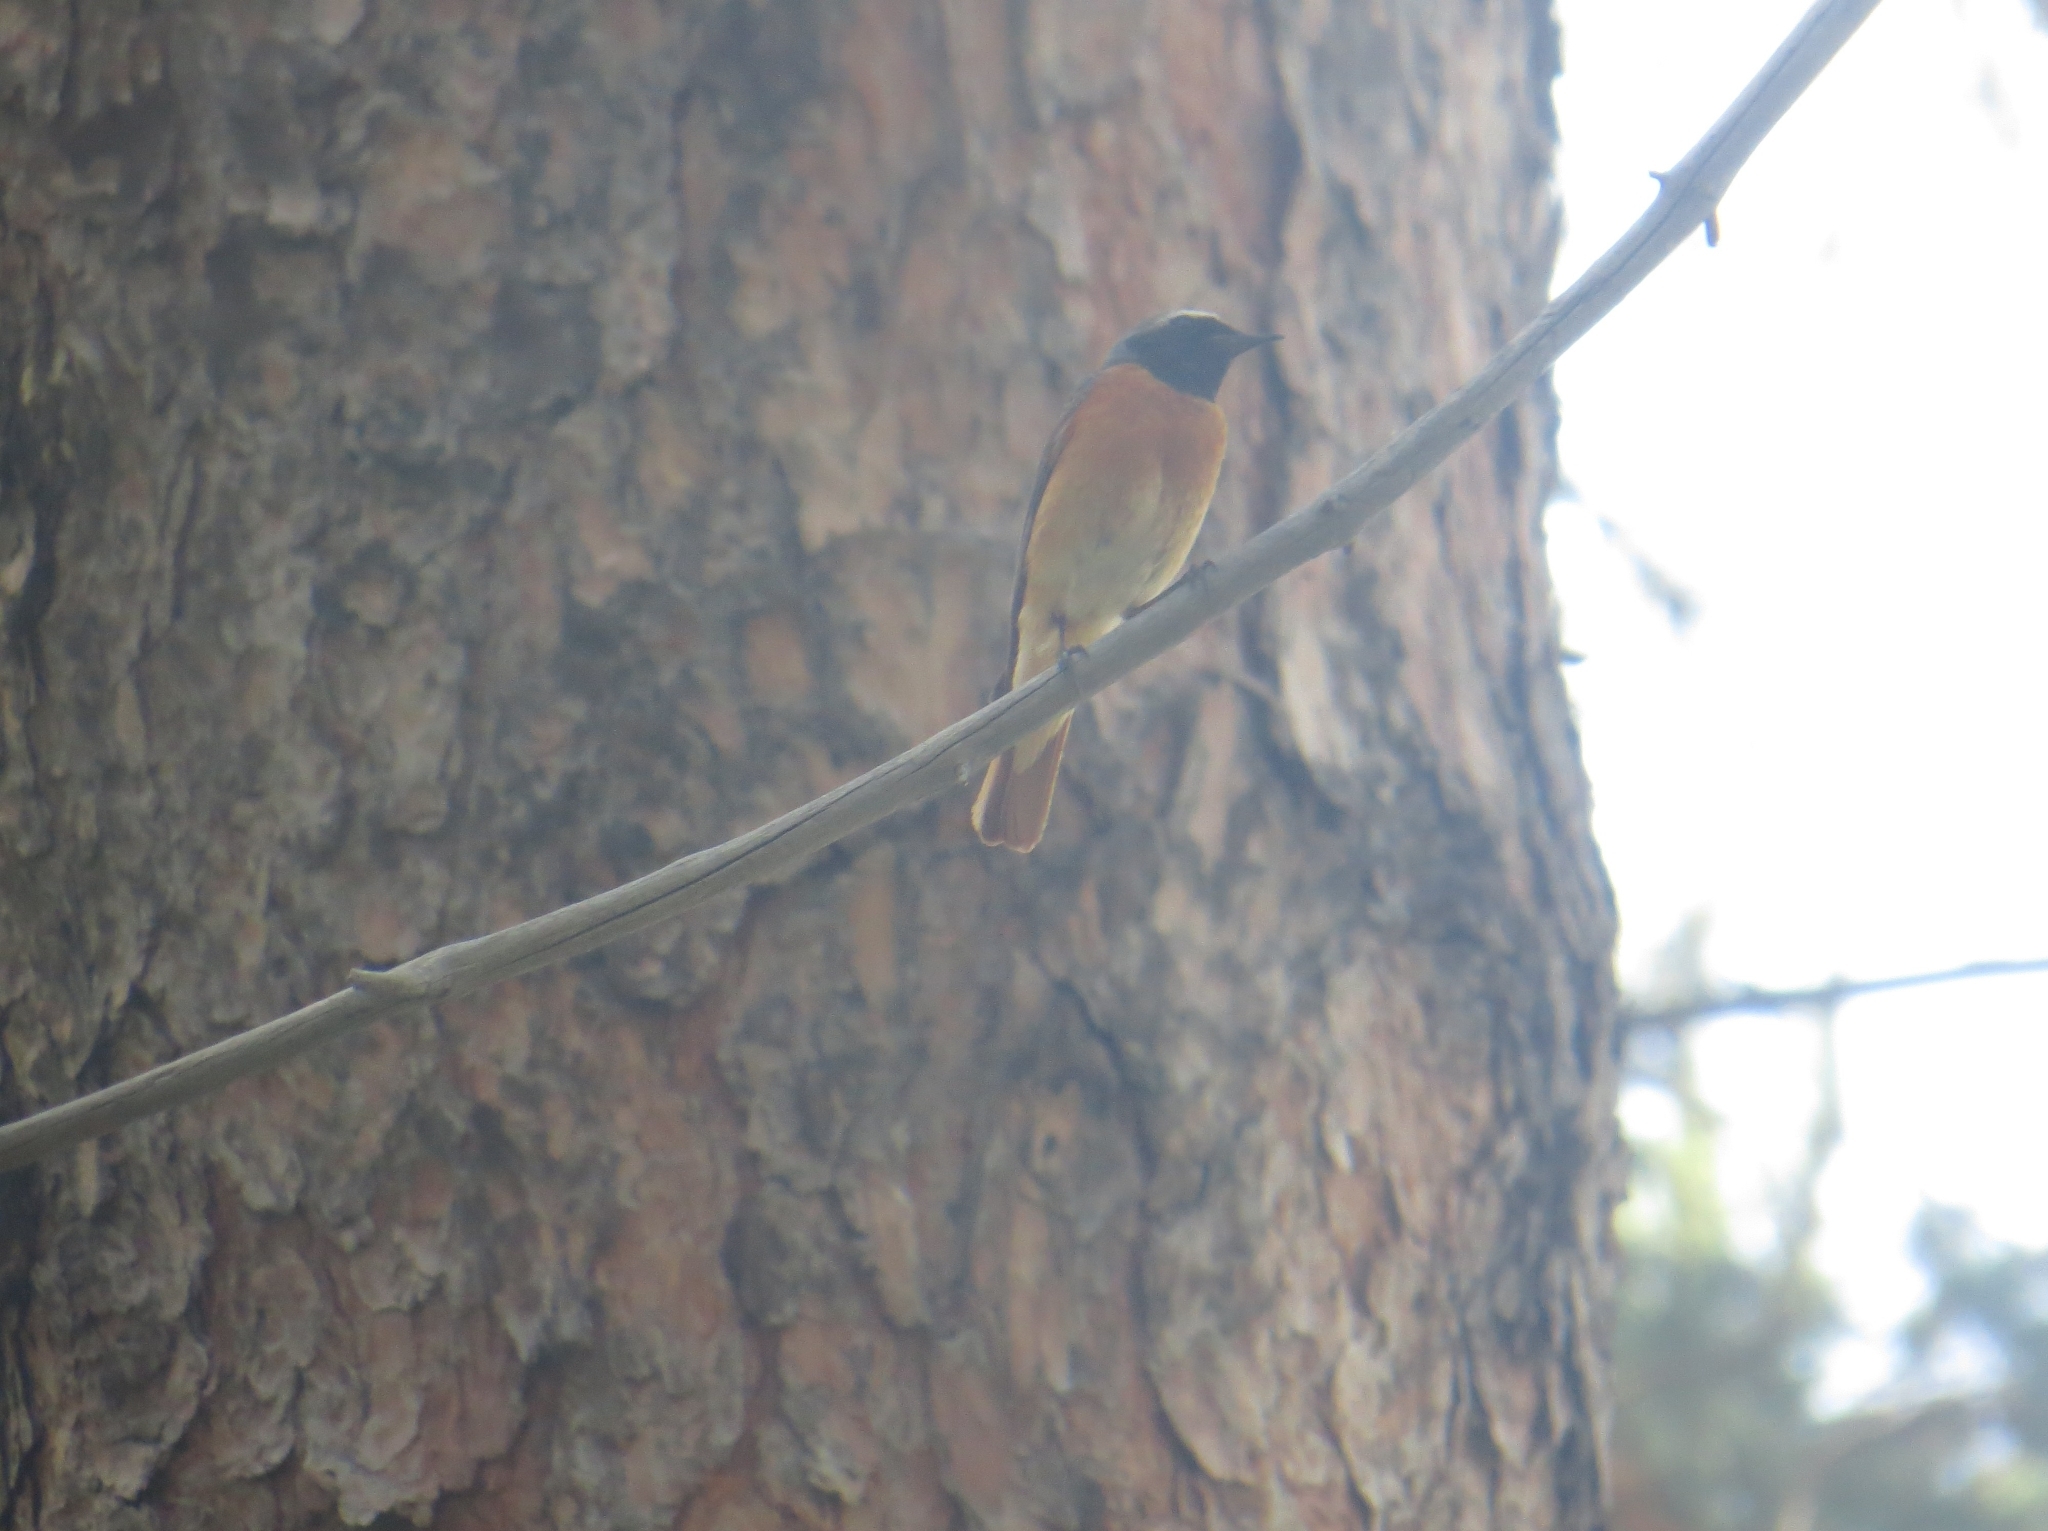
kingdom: Animalia
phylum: Chordata
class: Aves
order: Passeriformes
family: Muscicapidae
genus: Phoenicurus
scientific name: Phoenicurus phoenicurus
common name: Common redstart
